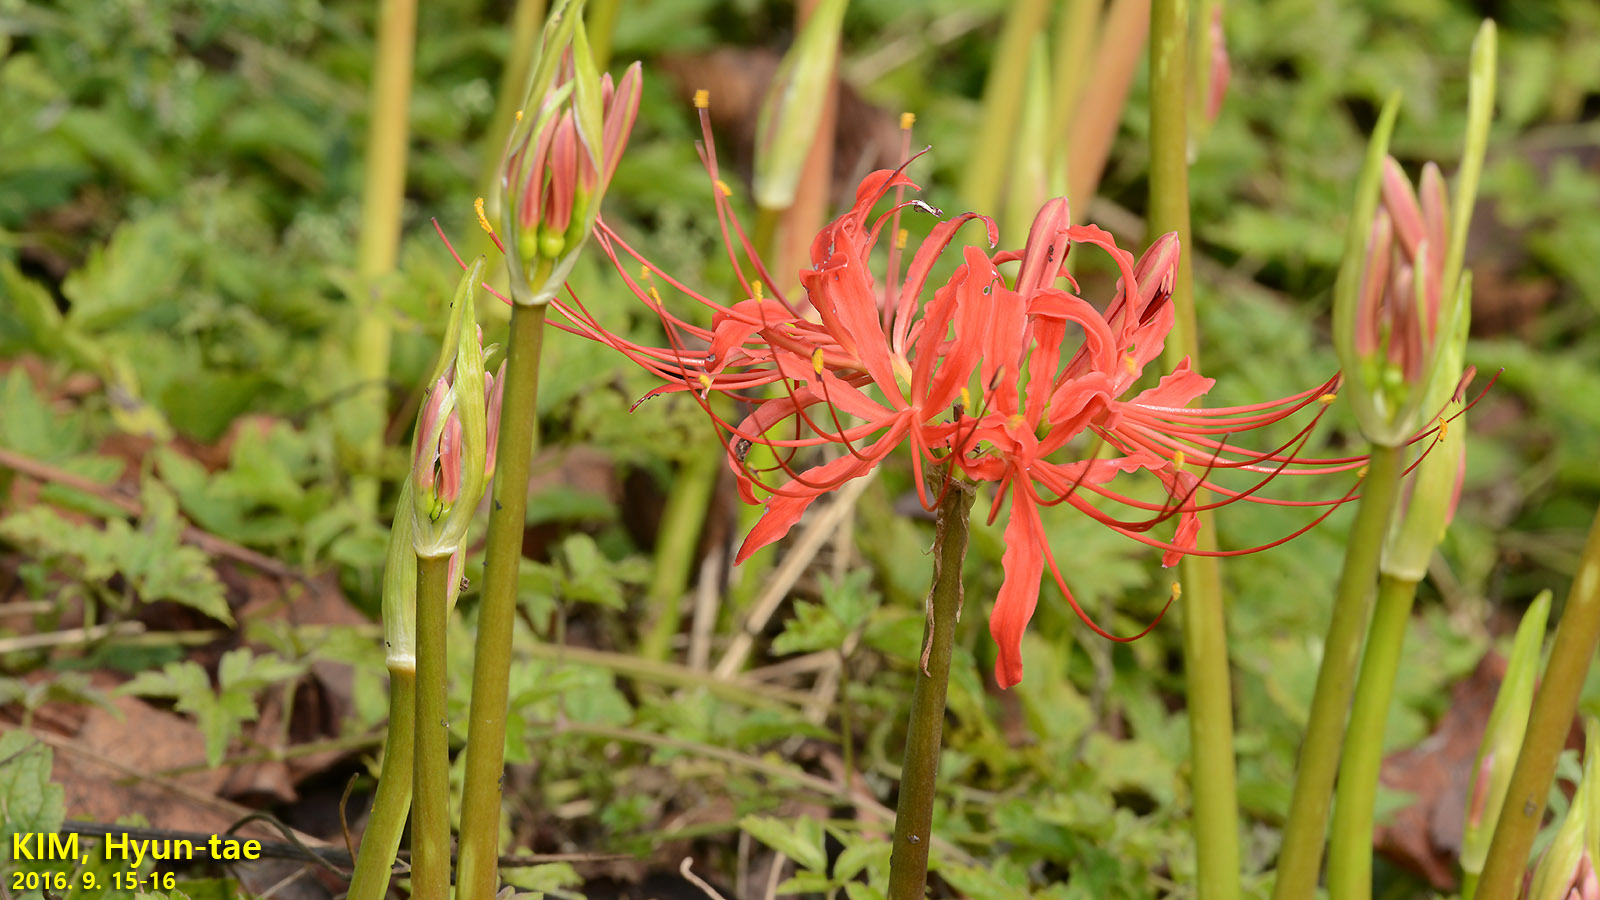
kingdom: Plantae
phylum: Tracheophyta
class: Liliopsida
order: Asparagales
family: Amaryllidaceae
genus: Lycoris
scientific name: Lycoris radiata
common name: Red spider lily
